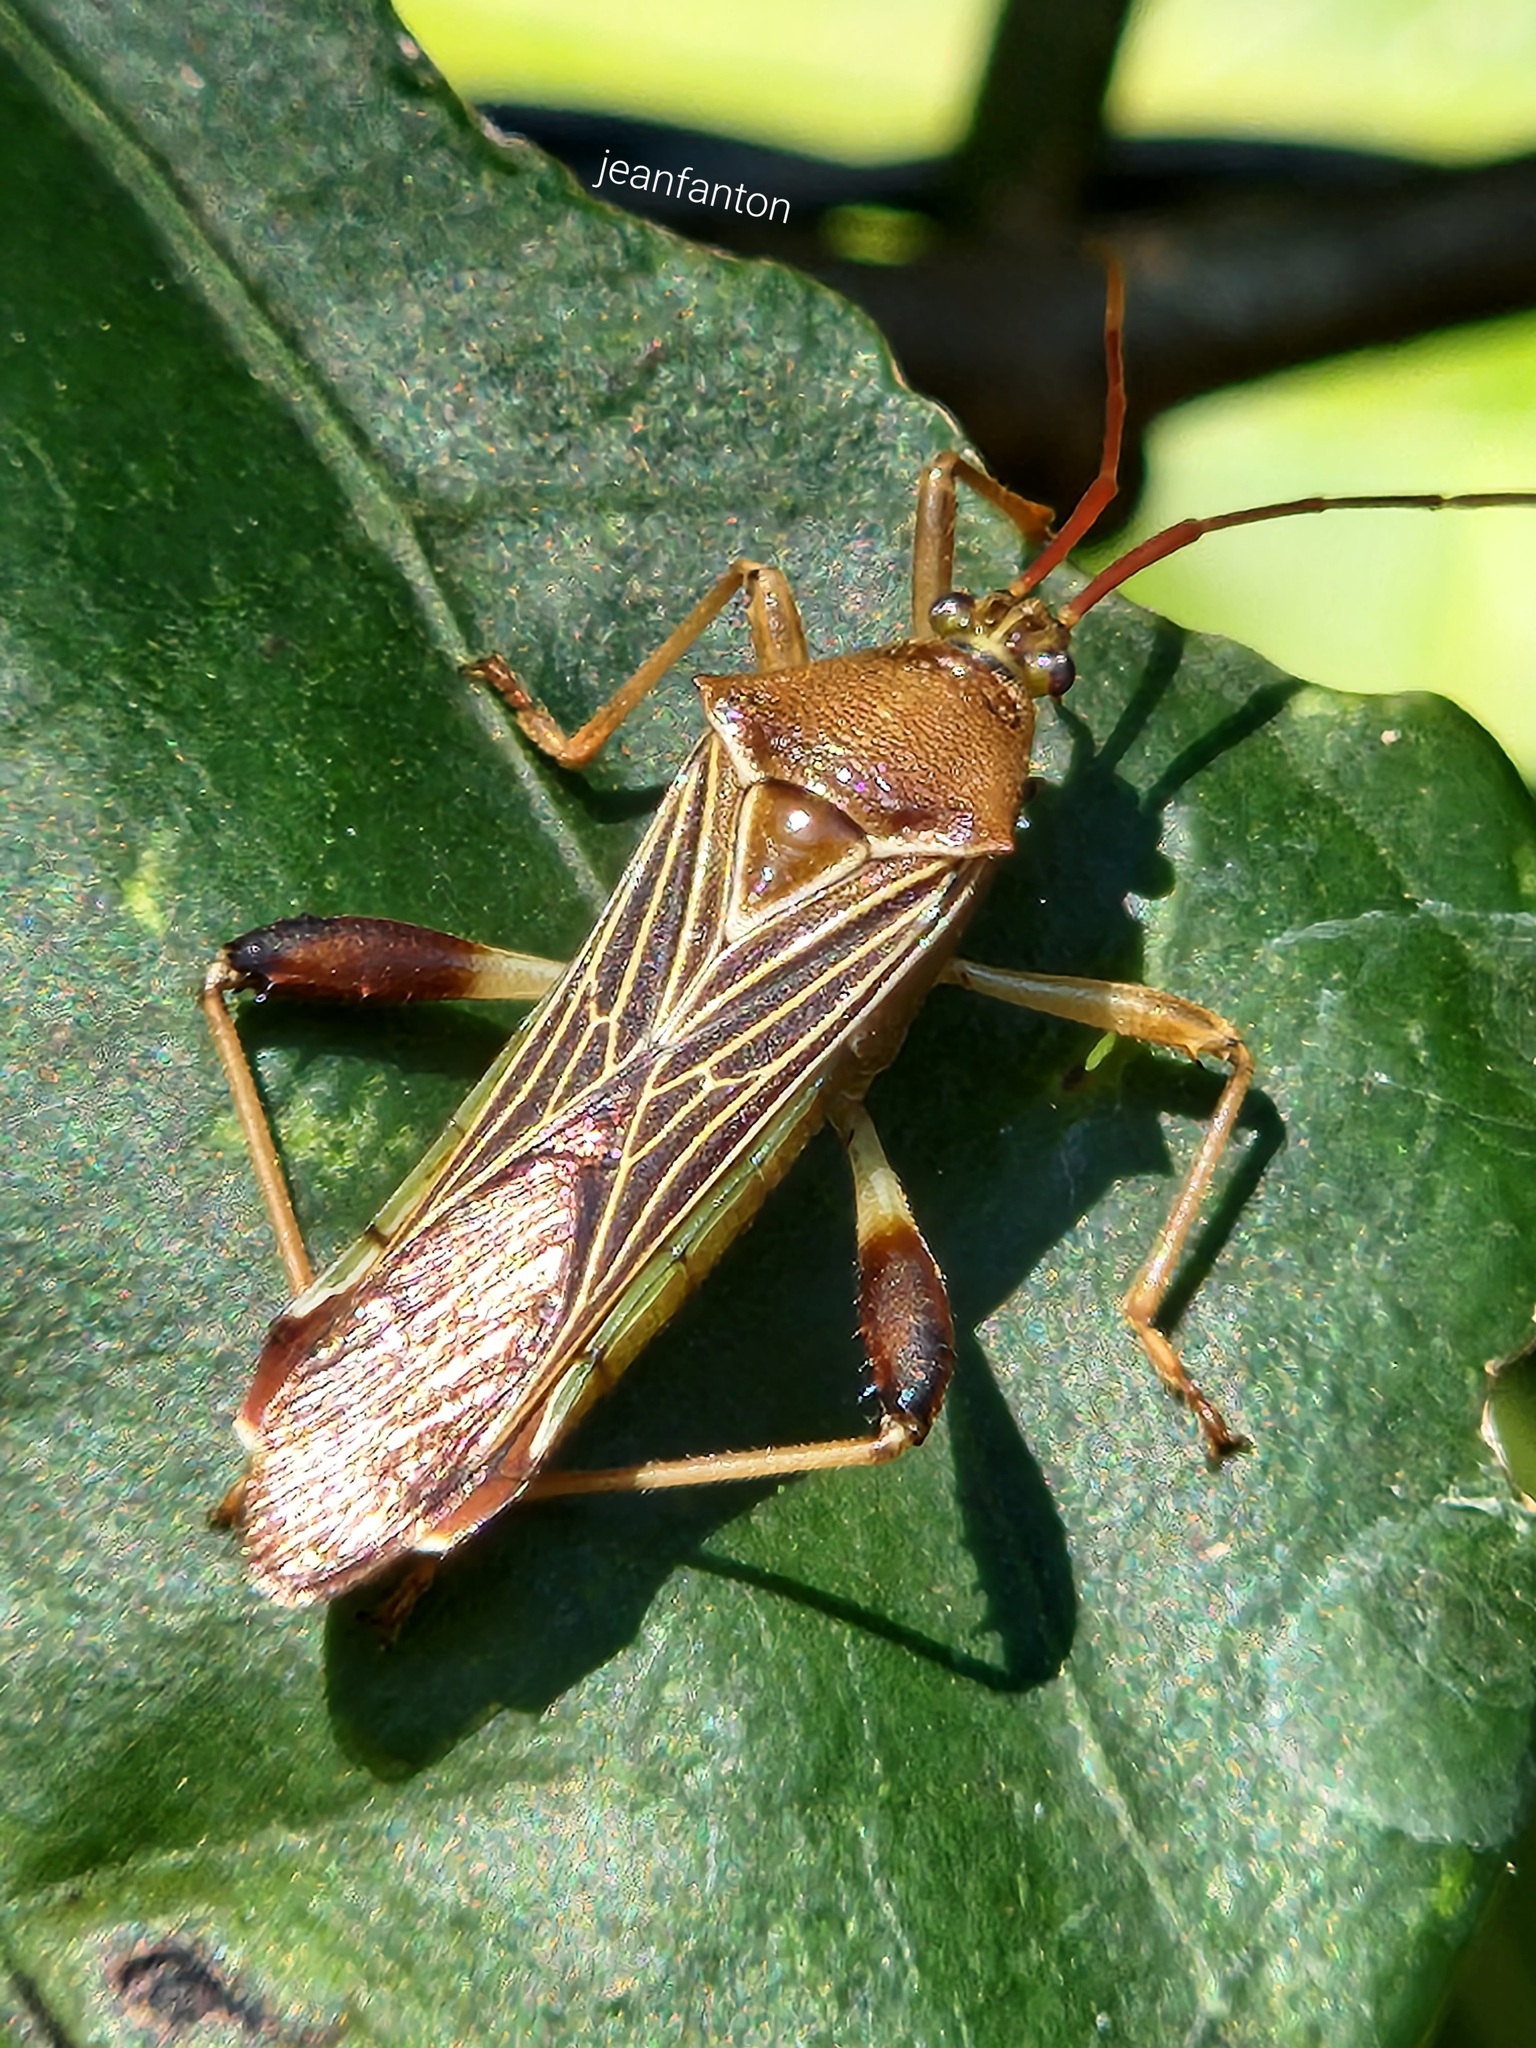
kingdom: Animalia
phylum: Arthropoda
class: Insecta
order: Hemiptera
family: Coreidae
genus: Grammopoecilus
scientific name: Grammopoecilus flavicornis
